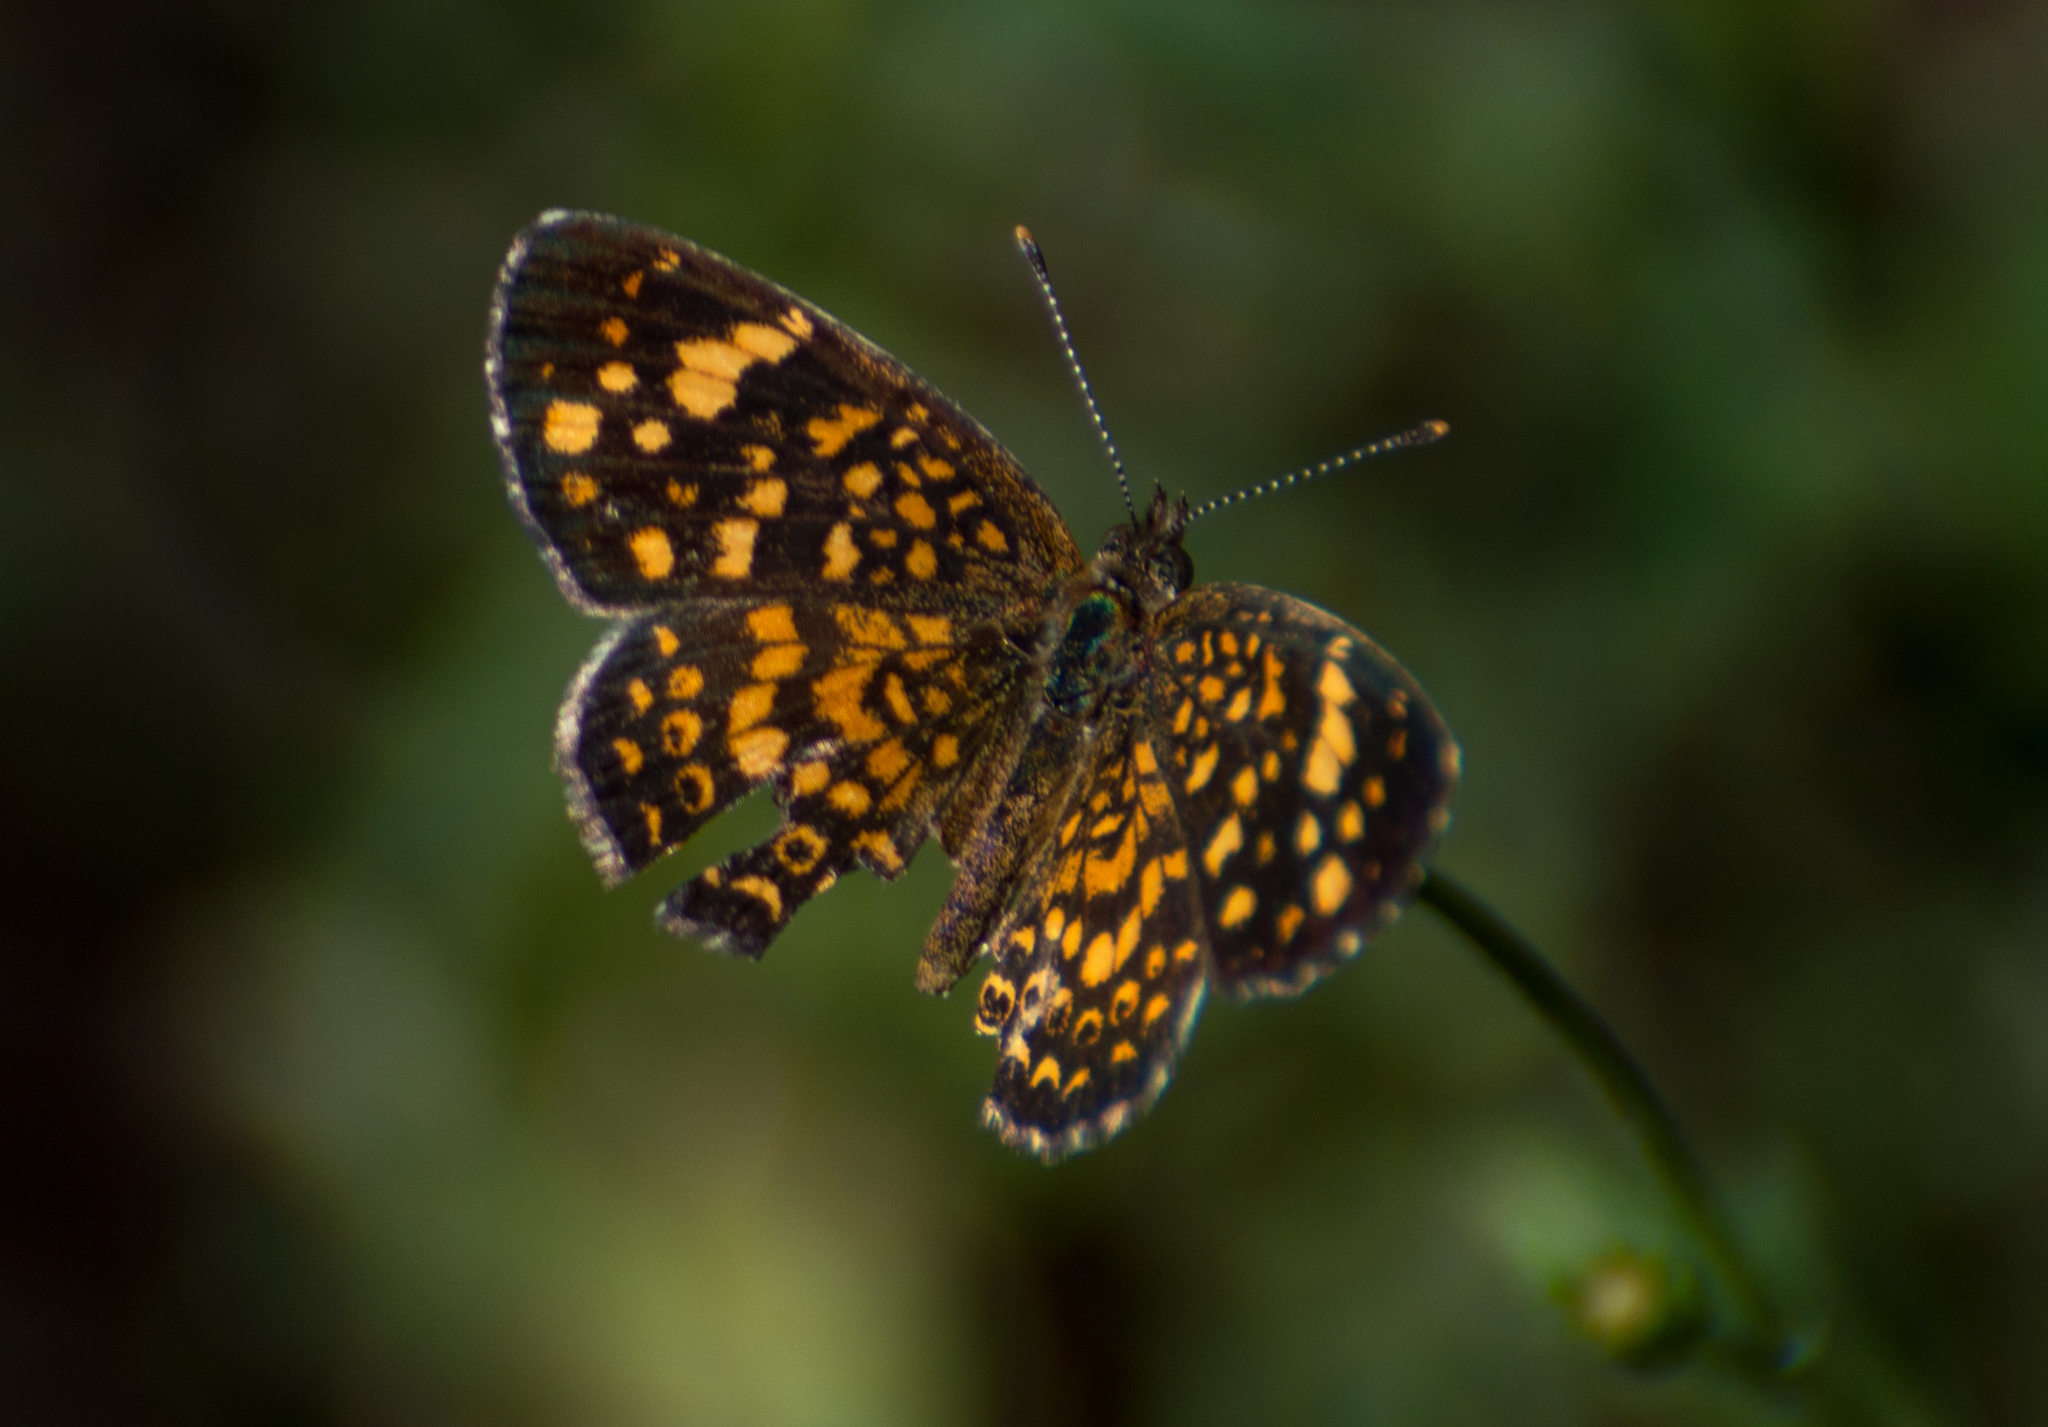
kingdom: Animalia
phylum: Arthropoda
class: Insecta
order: Lepidoptera
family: Nymphalidae
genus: Phystis
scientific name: Phystis simois
